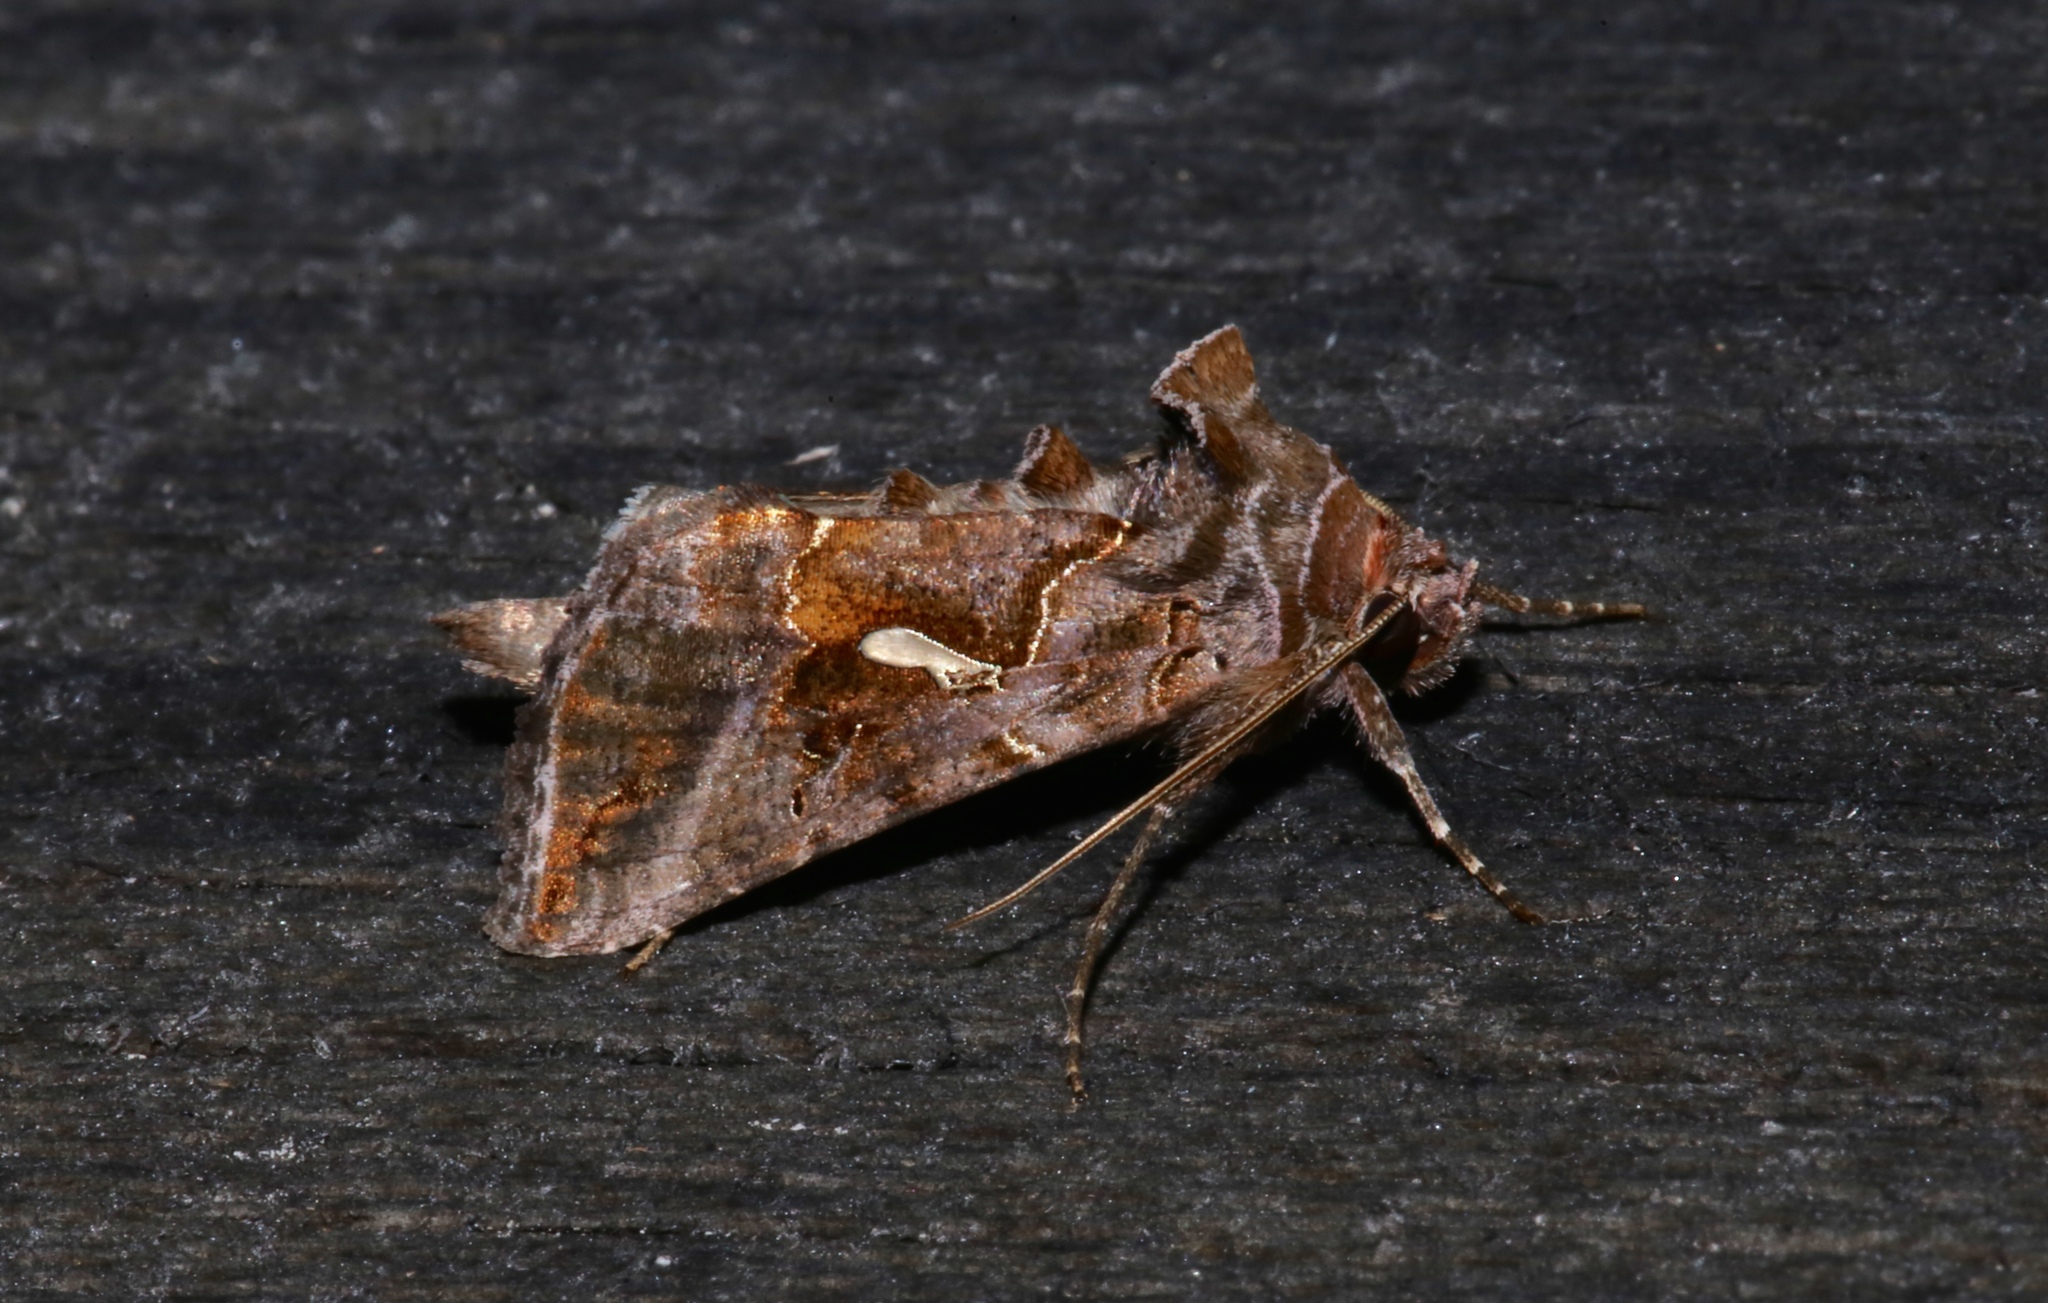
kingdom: Animalia
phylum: Arthropoda
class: Insecta
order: Lepidoptera
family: Noctuidae
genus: Autographa
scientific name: Autographa precationis
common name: Common looper moth
